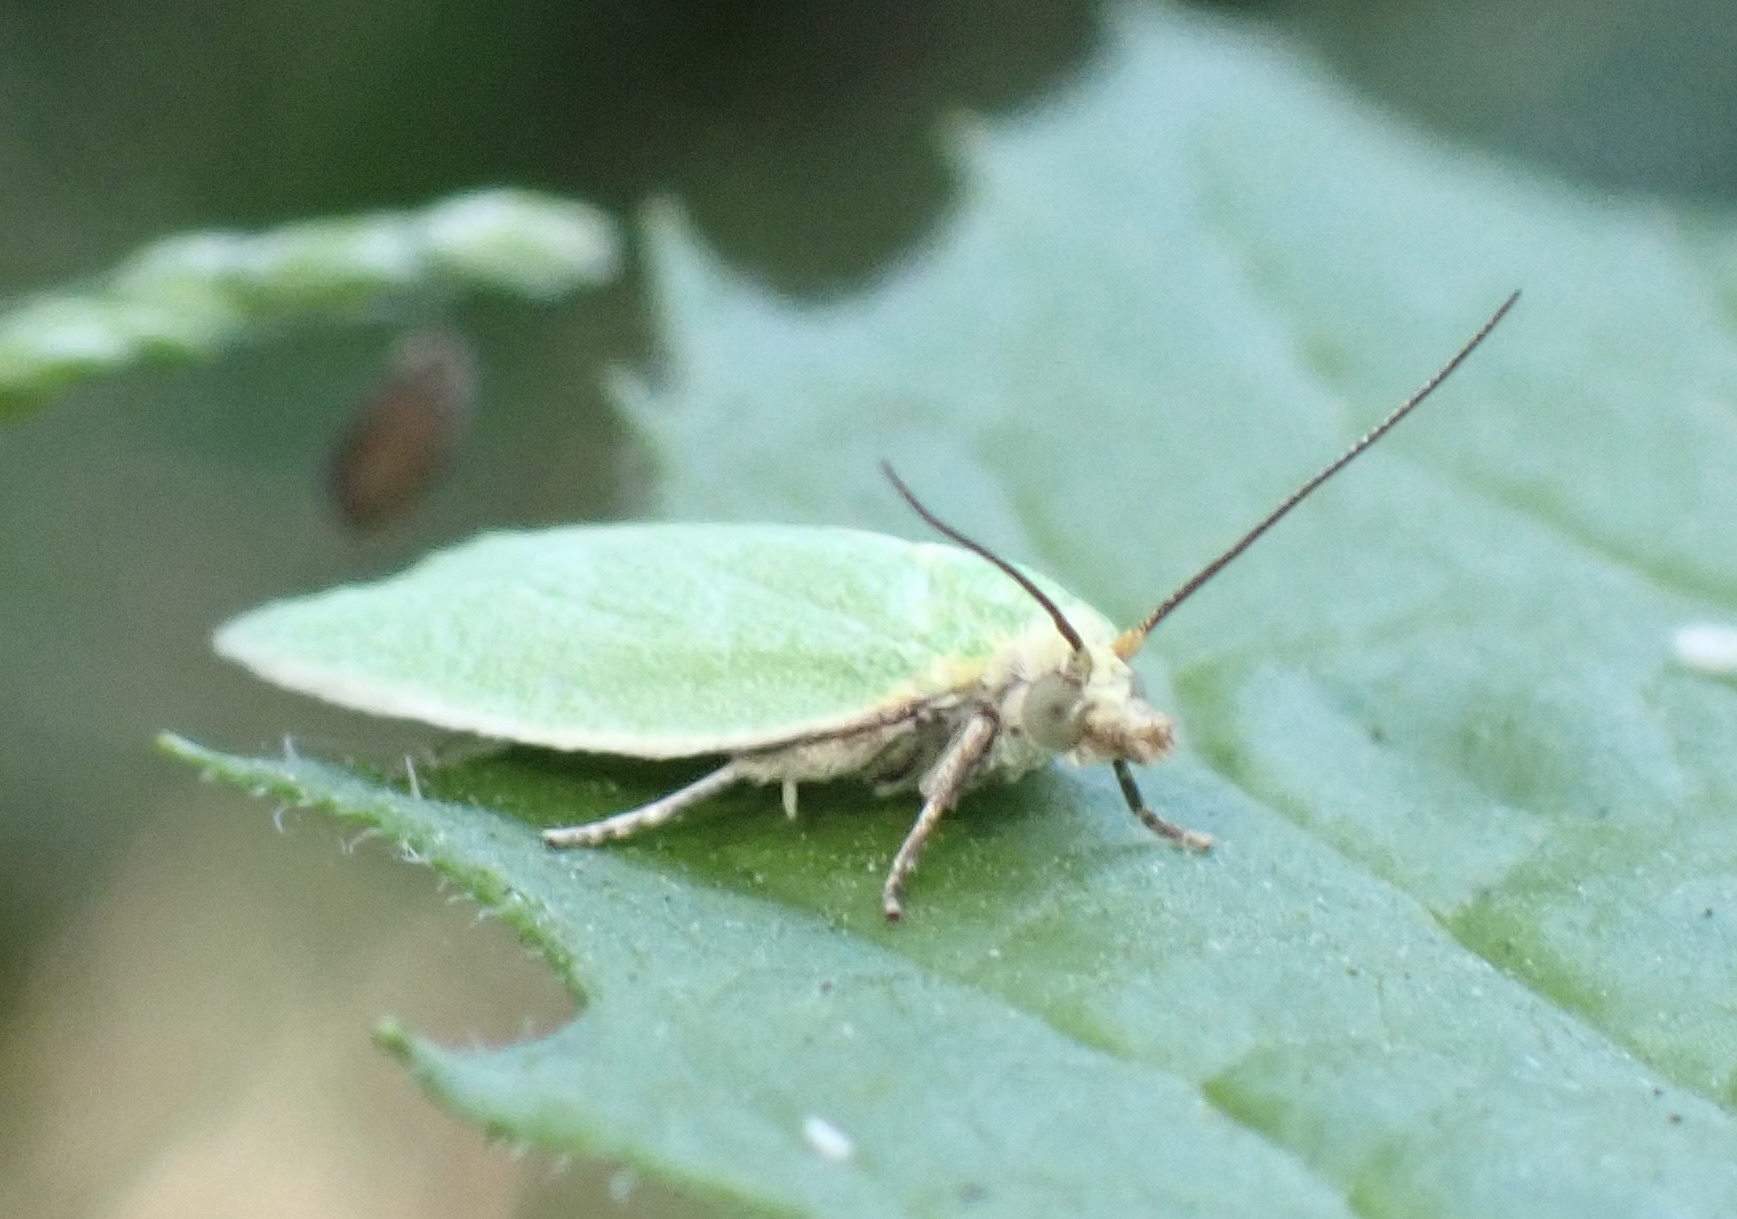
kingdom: Animalia
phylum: Arthropoda
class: Insecta
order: Lepidoptera
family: Tortricidae
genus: Tortrix
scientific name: Tortrix viridana
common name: Green oak tortrix
